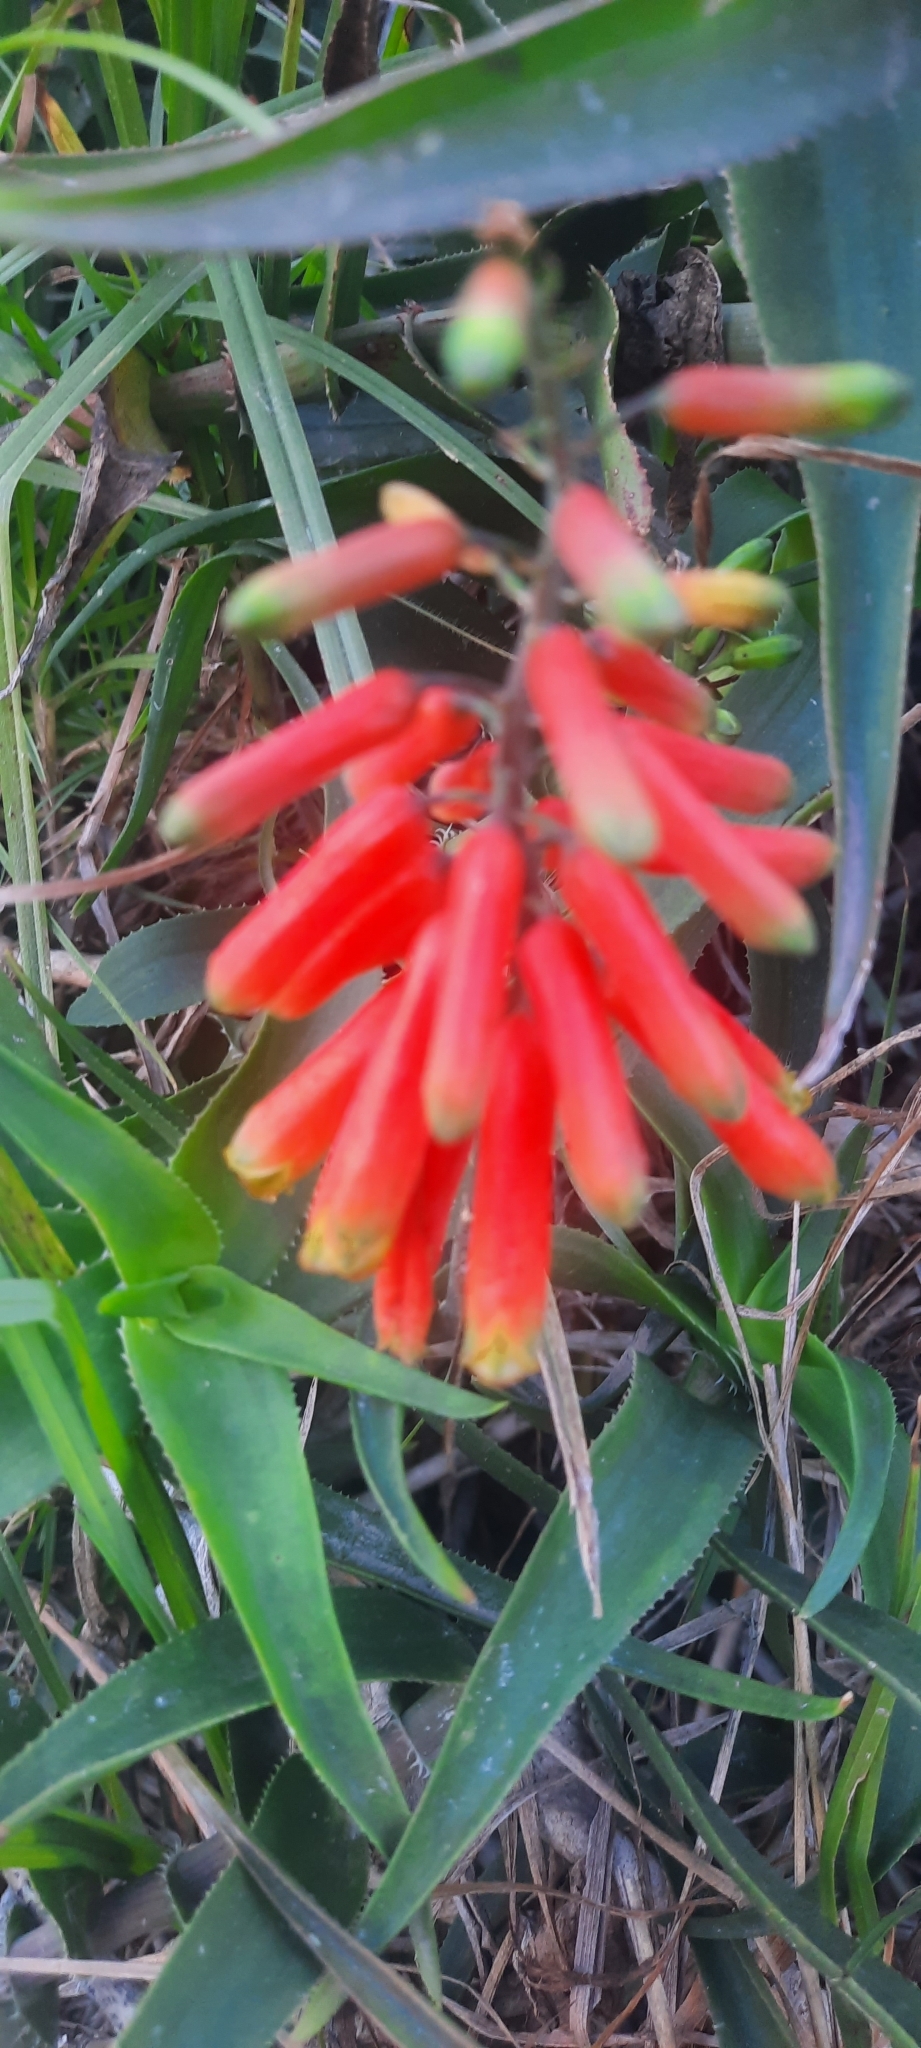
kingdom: Plantae
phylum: Tracheophyta
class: Liliopsida
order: Asparagales
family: Asphodelaceae
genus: Aloiampelos
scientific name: Aloiampelos ciliaris
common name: Climbing aloe
